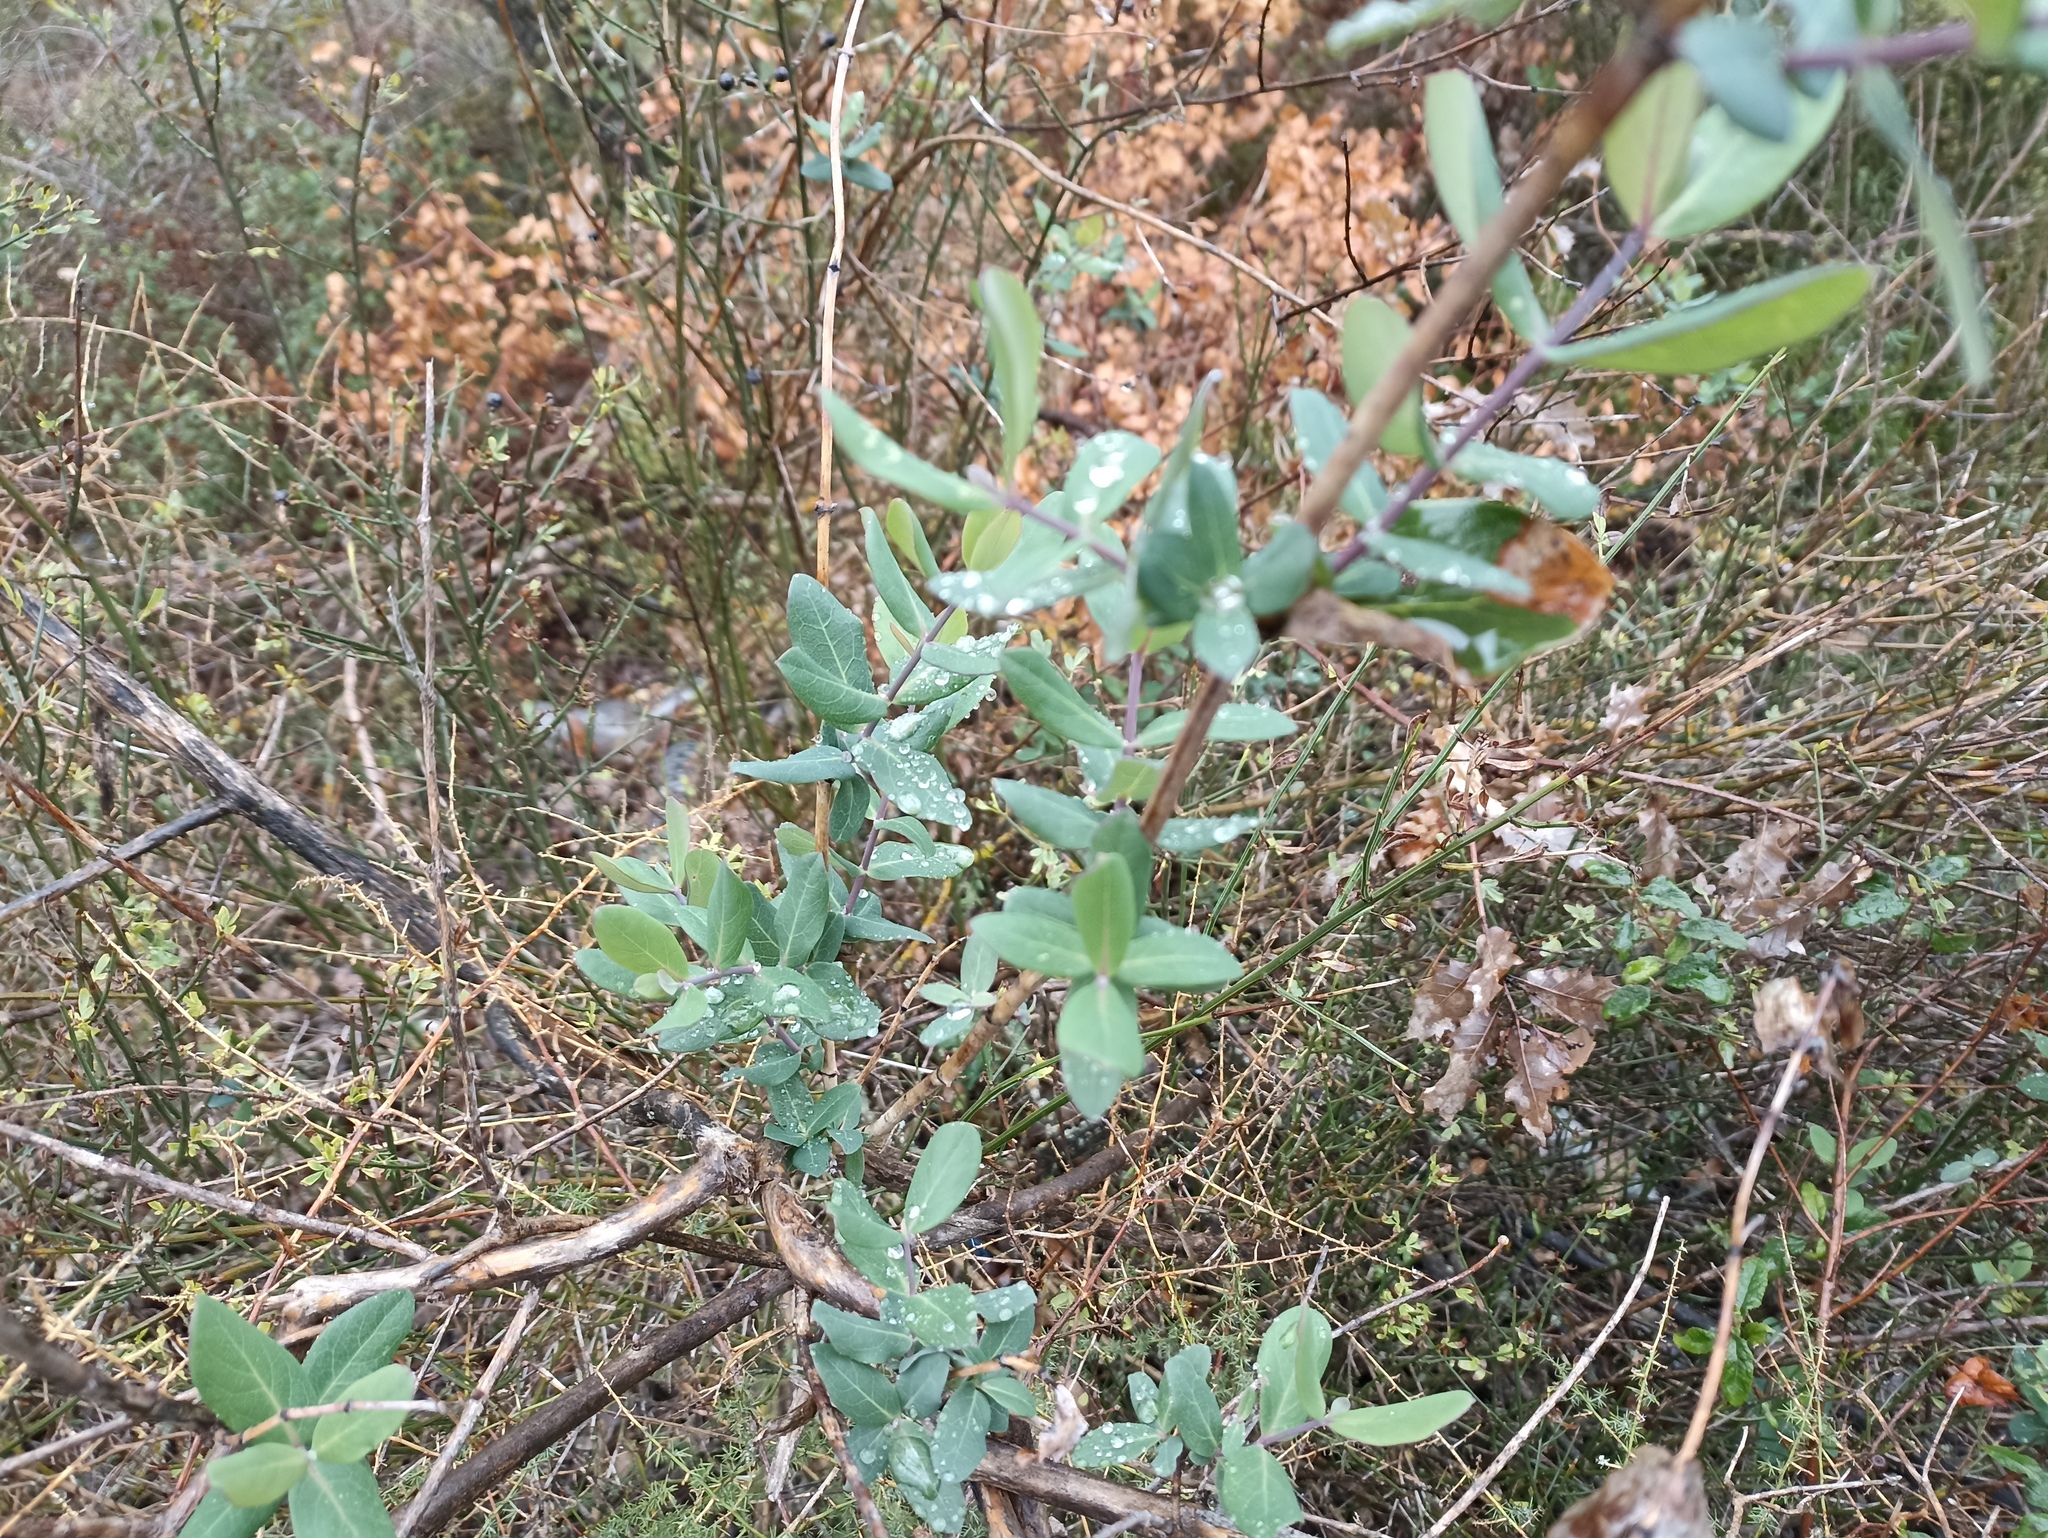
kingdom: Plantae
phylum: Tracheophyta
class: Magnoliopsida
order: Dipsacales
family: Caprifoliaceae
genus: Lonicera
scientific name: Lonicera implexa
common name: Minorca honeysuckle
